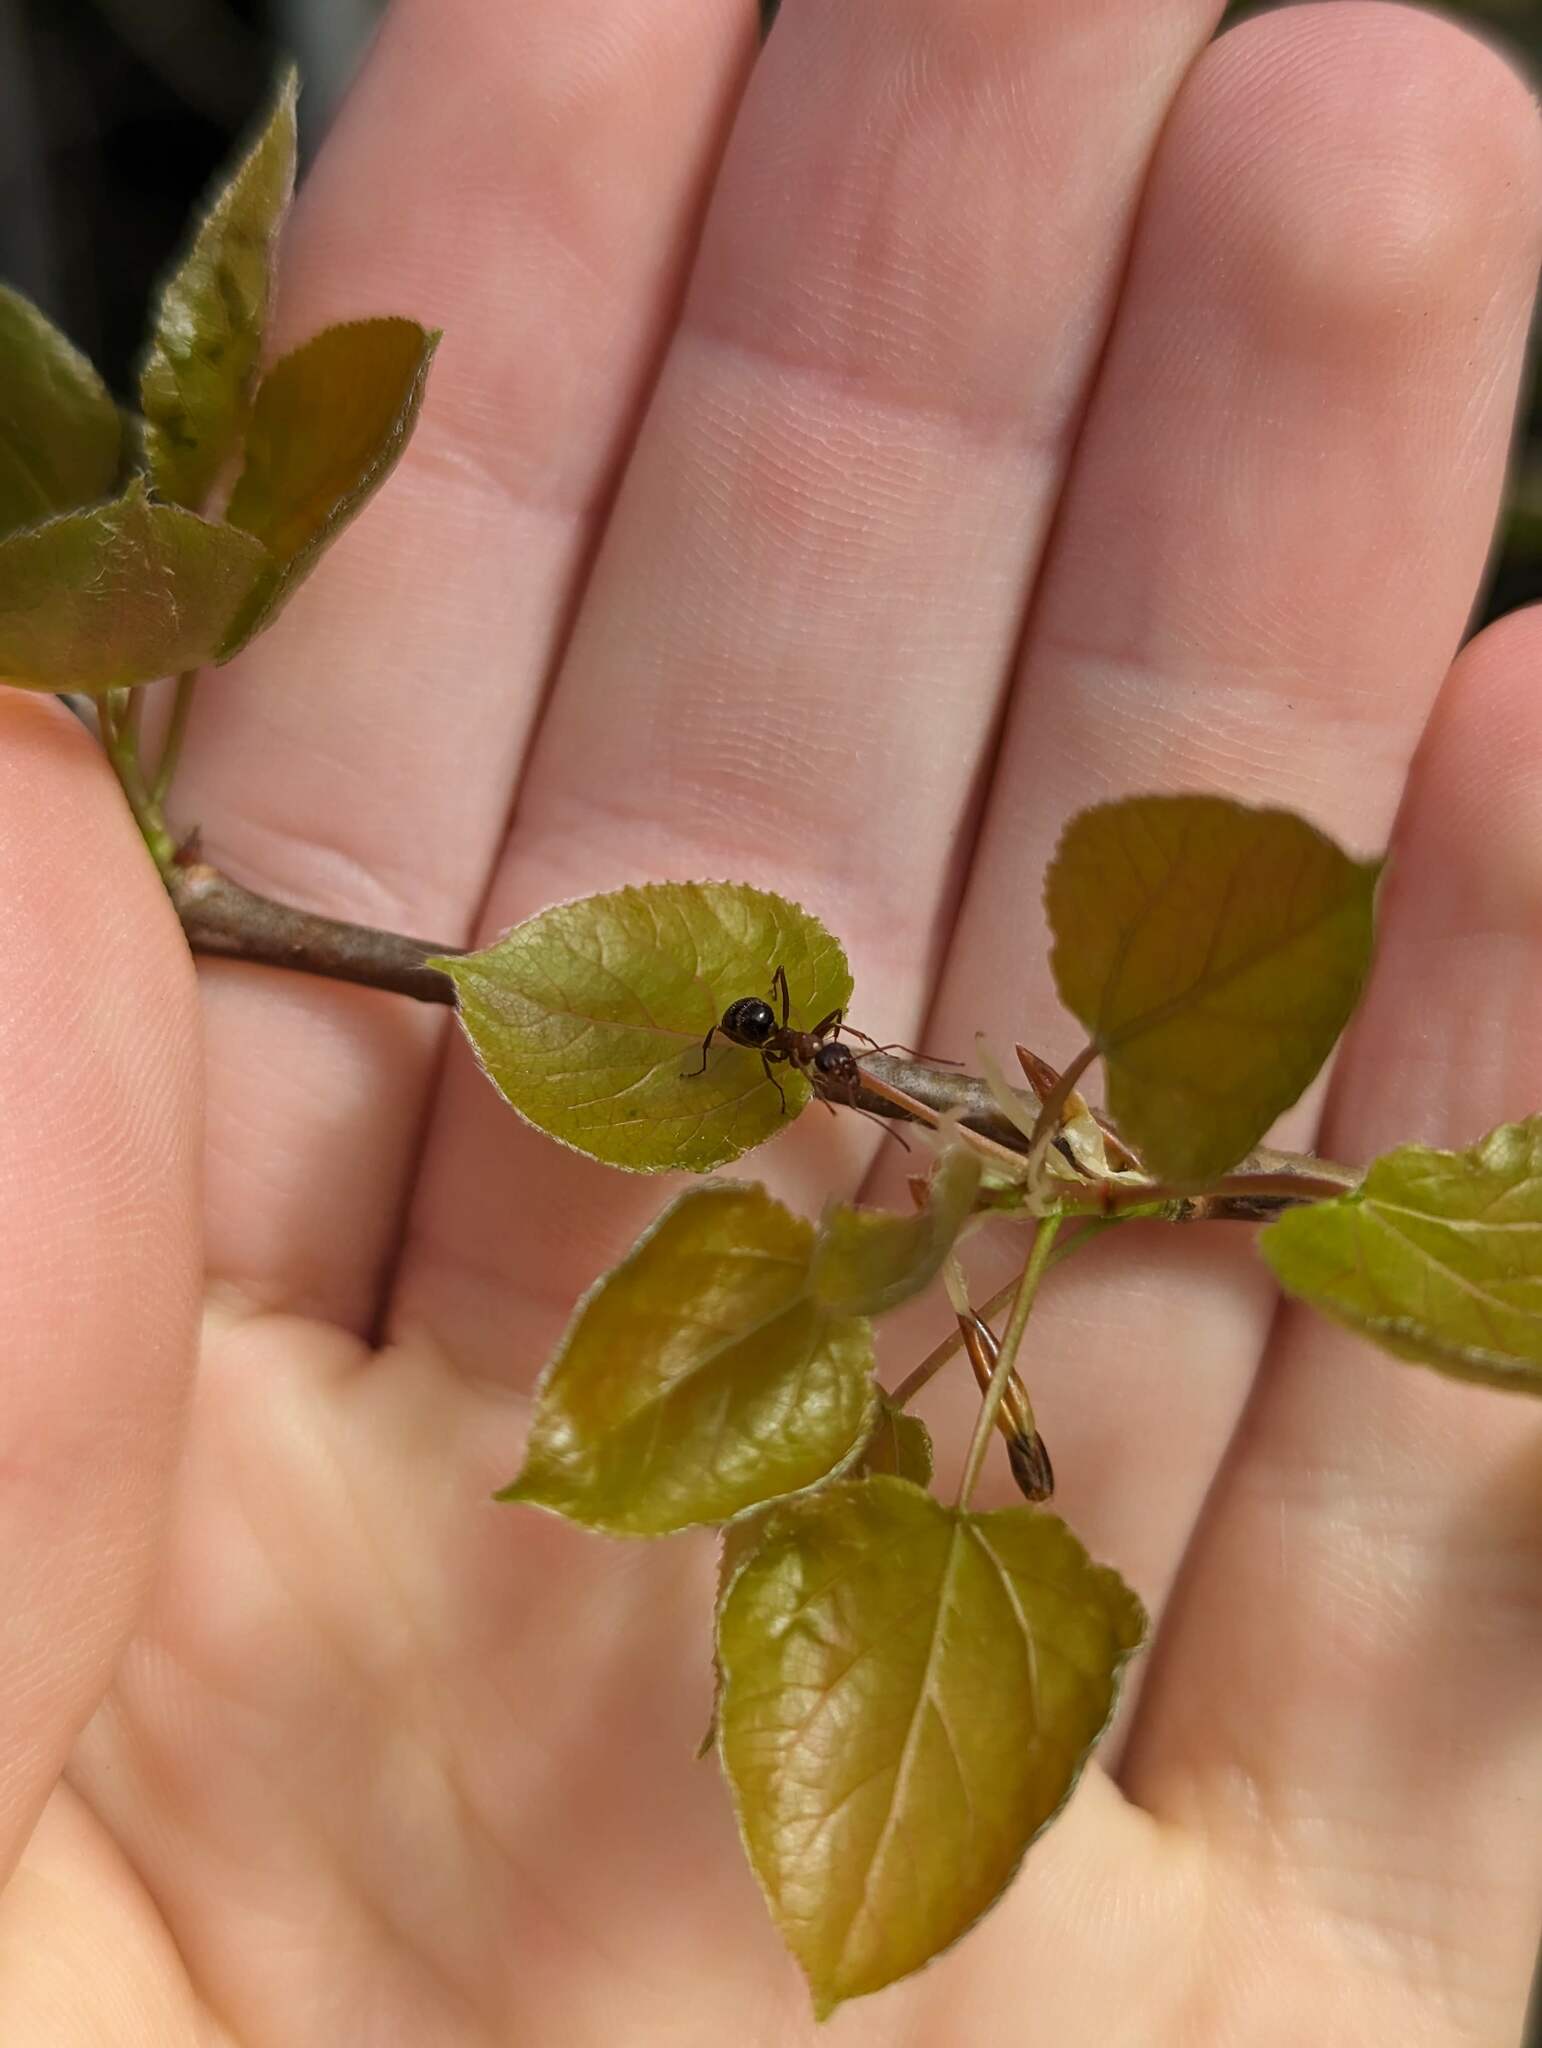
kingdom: Plantae
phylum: Tracheophyta
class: Magnoliopsida
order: Malpighiales
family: Salicaceae
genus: Populus
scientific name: Populus tremuloides
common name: Quaking aspen
